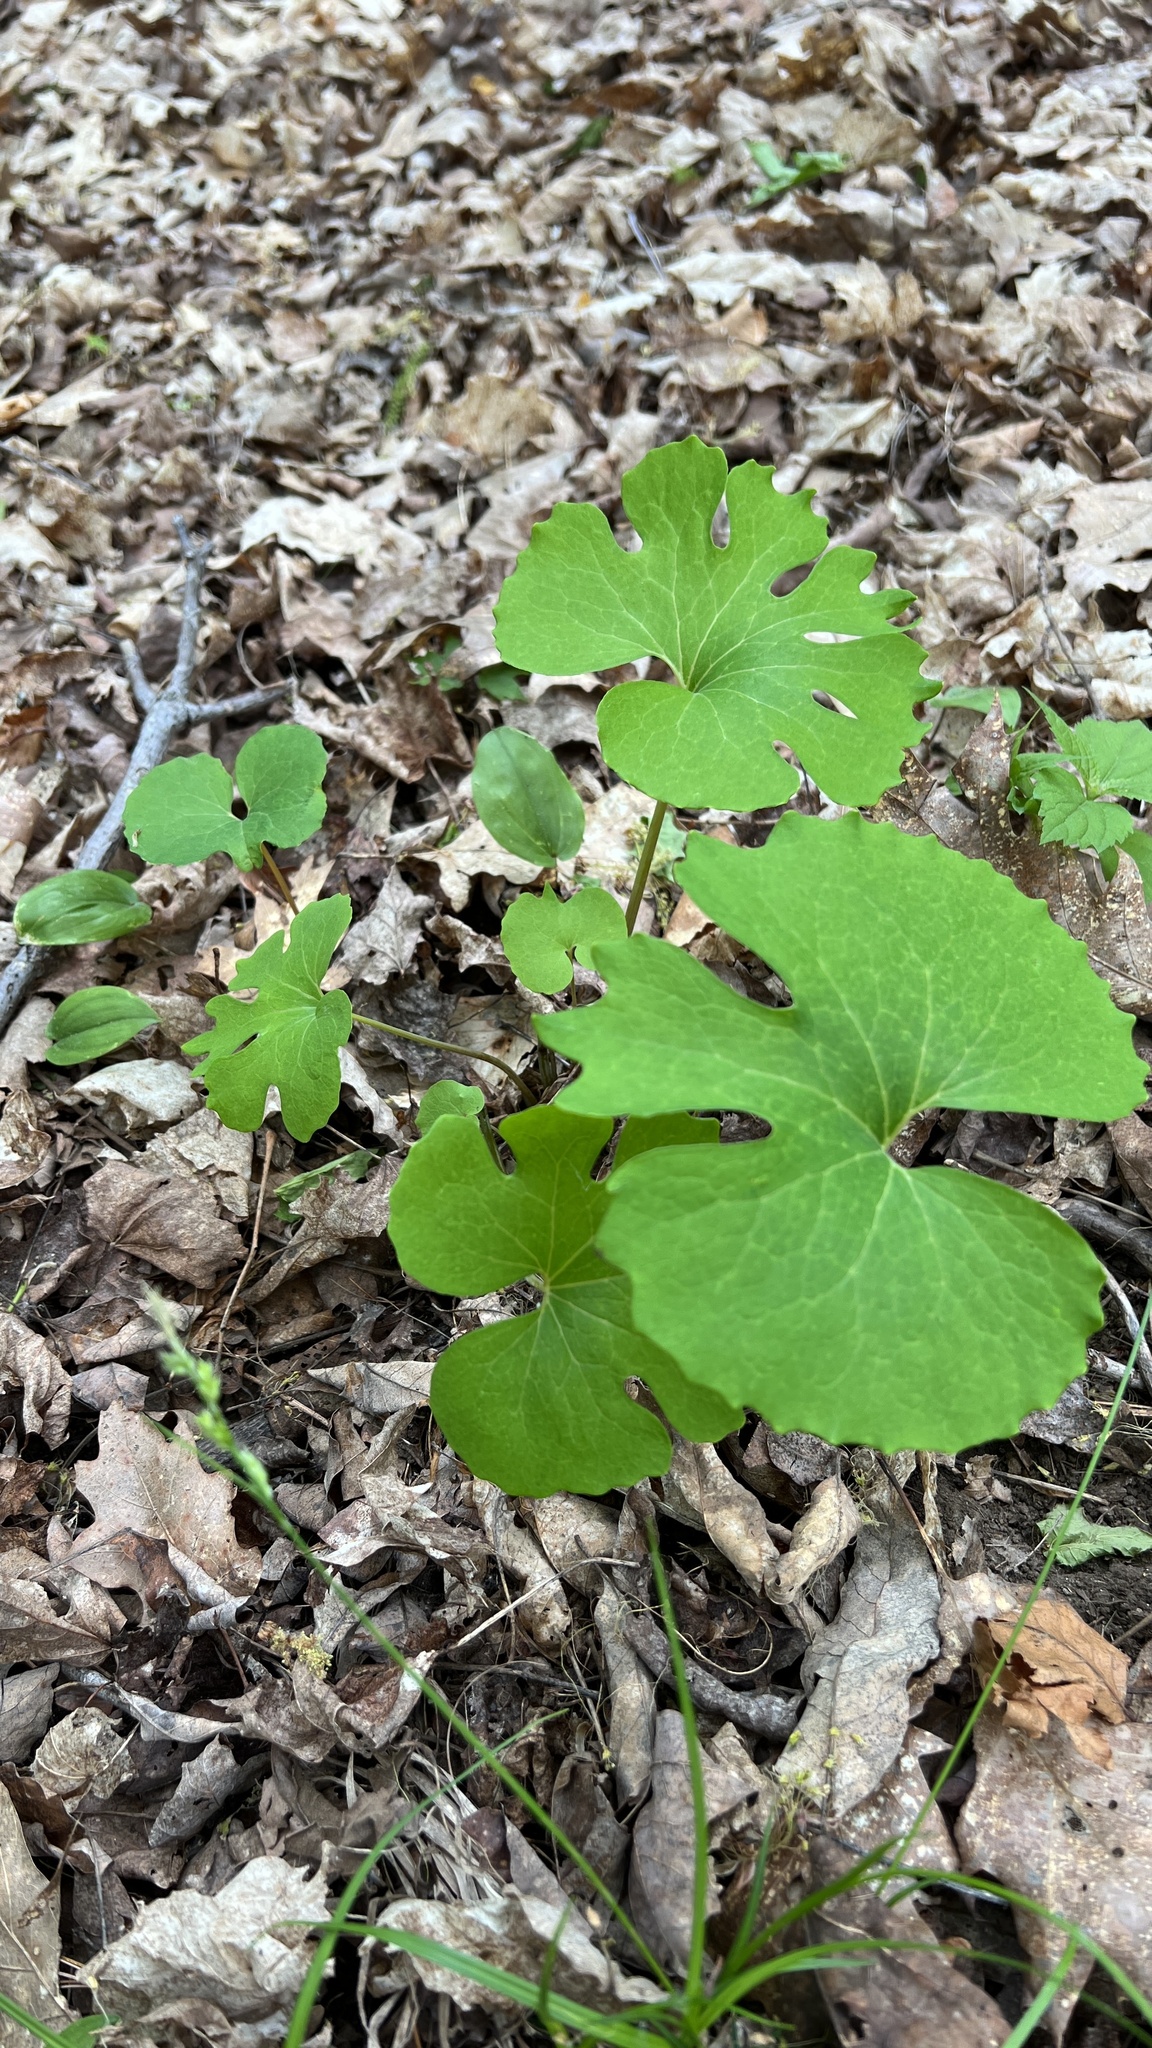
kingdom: Plantae
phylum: Tracheophyta
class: Magnoliopsida
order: Ranunculales
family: Papaveraceae
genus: Sanguinaria
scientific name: Sanguinaria canadensis
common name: Bloodroot
